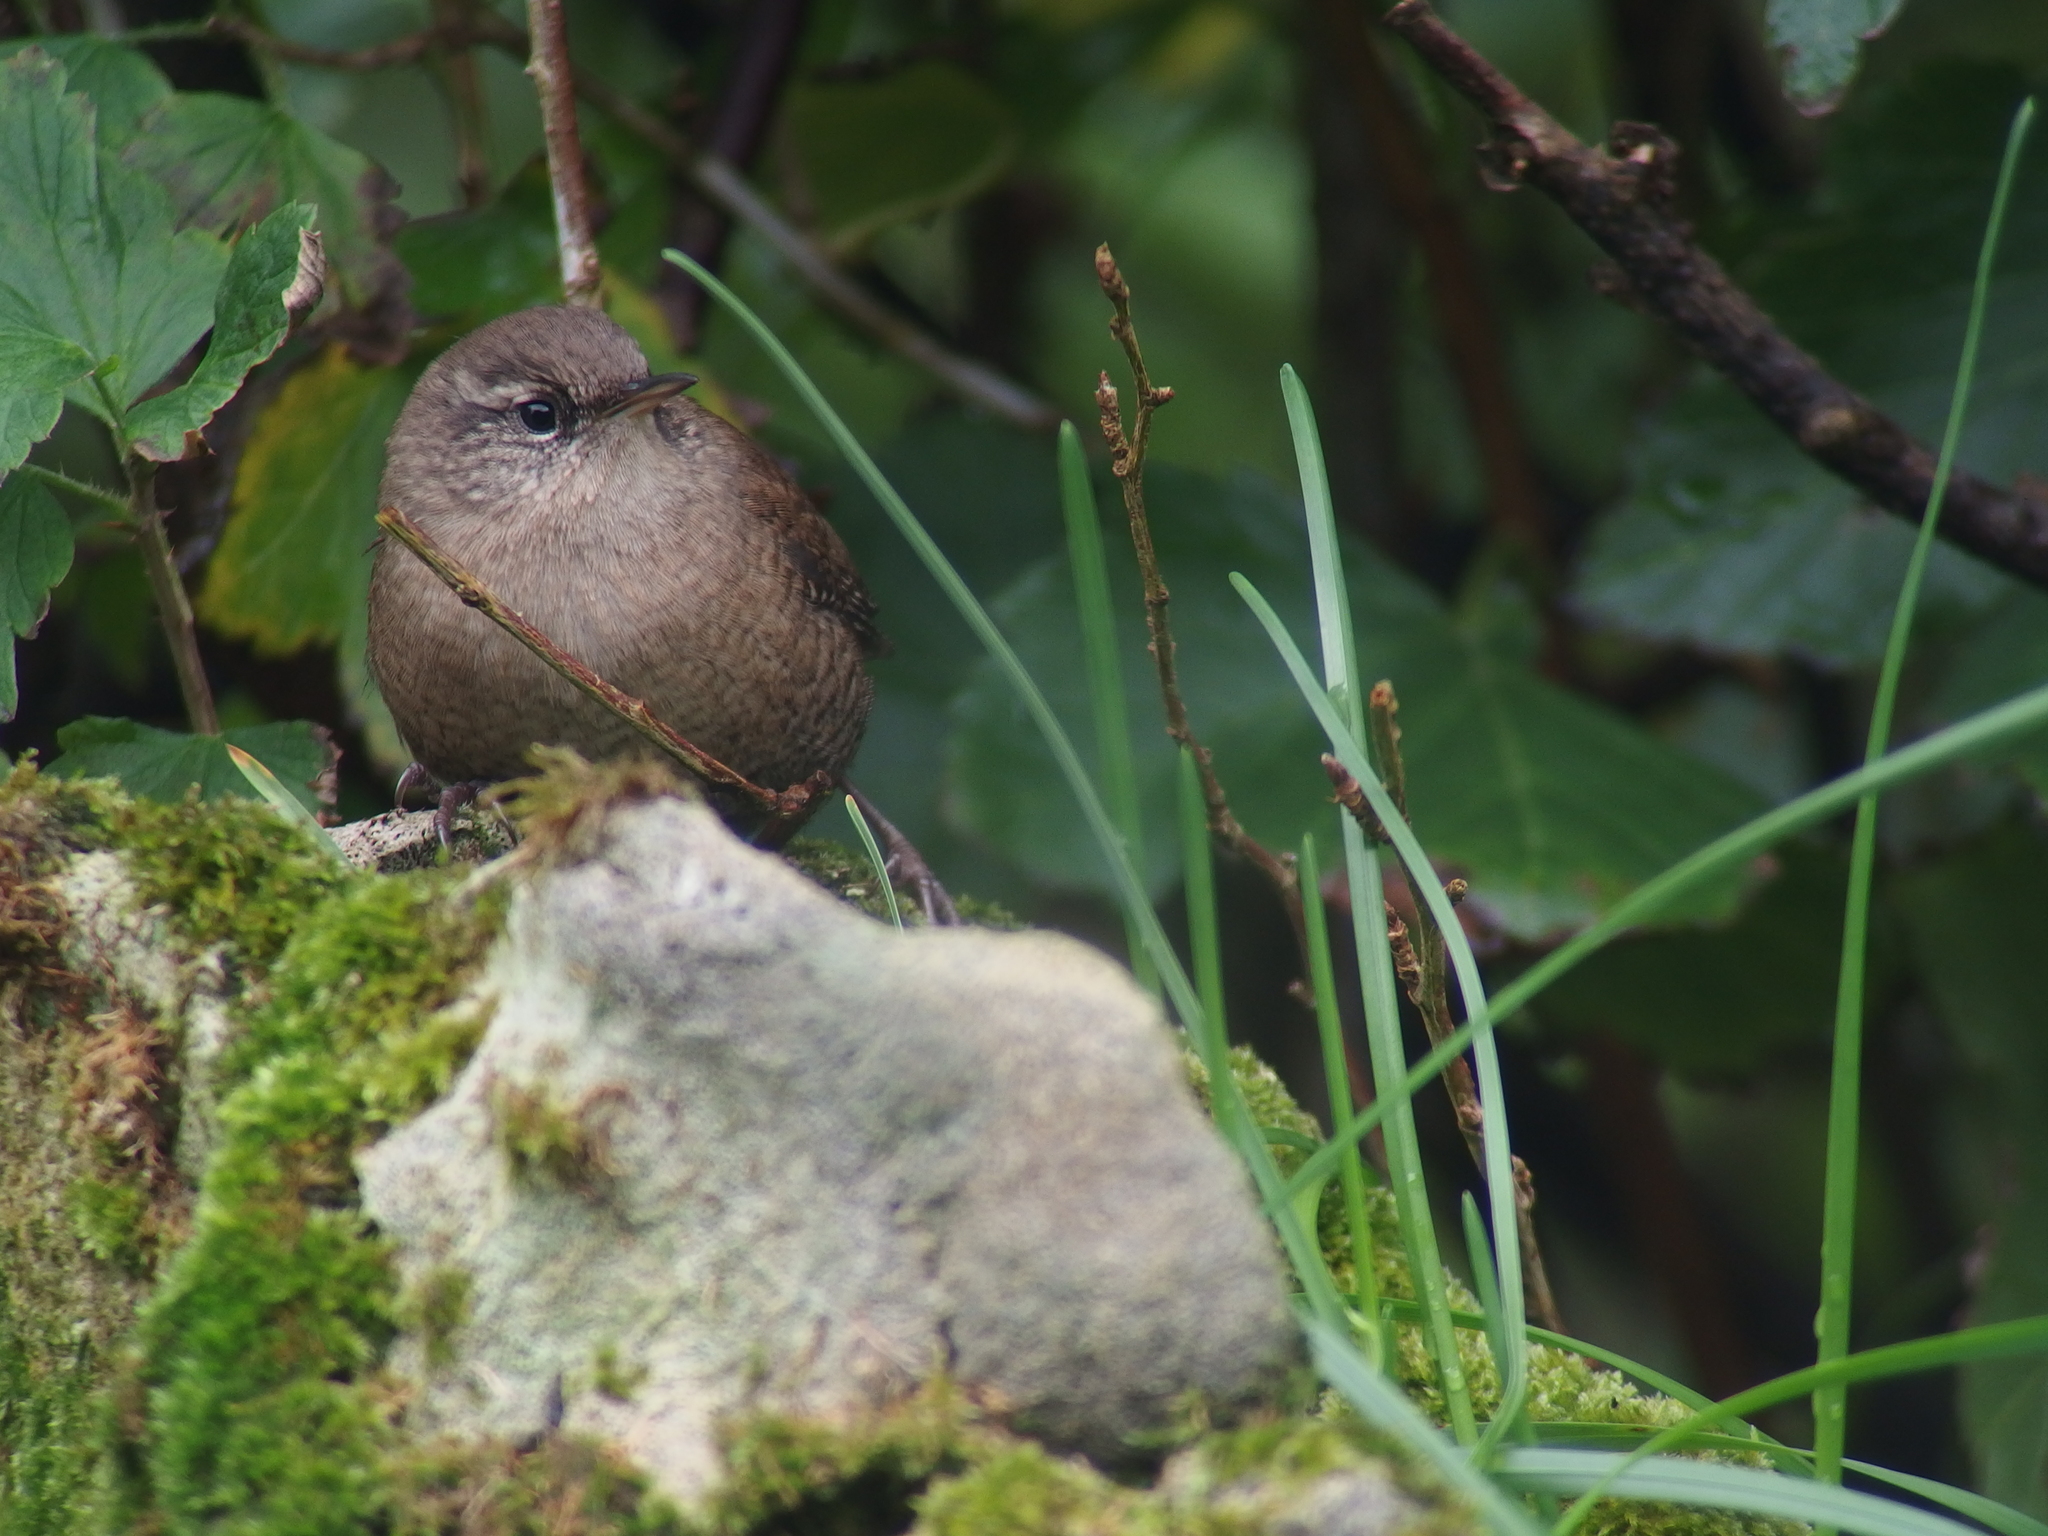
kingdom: Animalia
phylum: Chordata
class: Aves
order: Passeriformes
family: Troglodytidae
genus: Troglodytes
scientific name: Troglodytes troglodytes
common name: Eurasian wren
